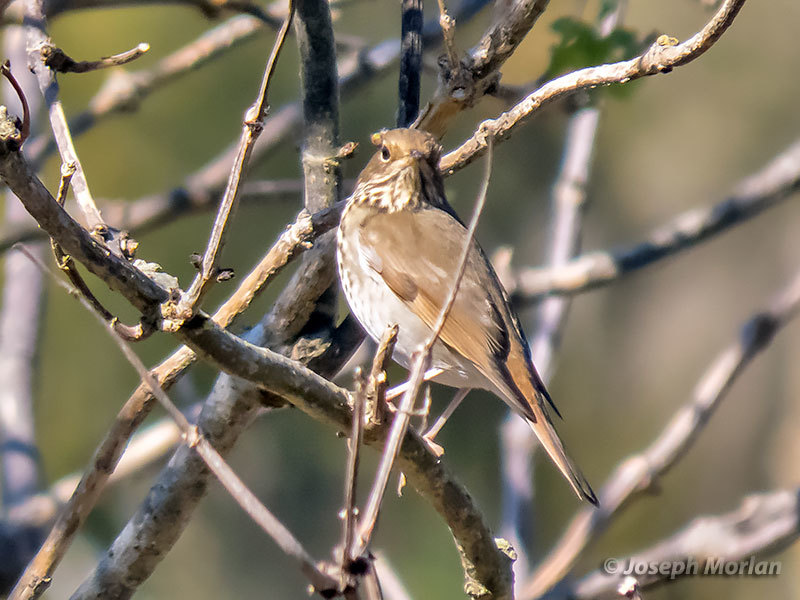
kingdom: Animalia
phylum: Chordata
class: Aves
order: Passeriformes
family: Turdidae
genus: Catharus
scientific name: Catharus guttatus
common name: Hermit thrush
